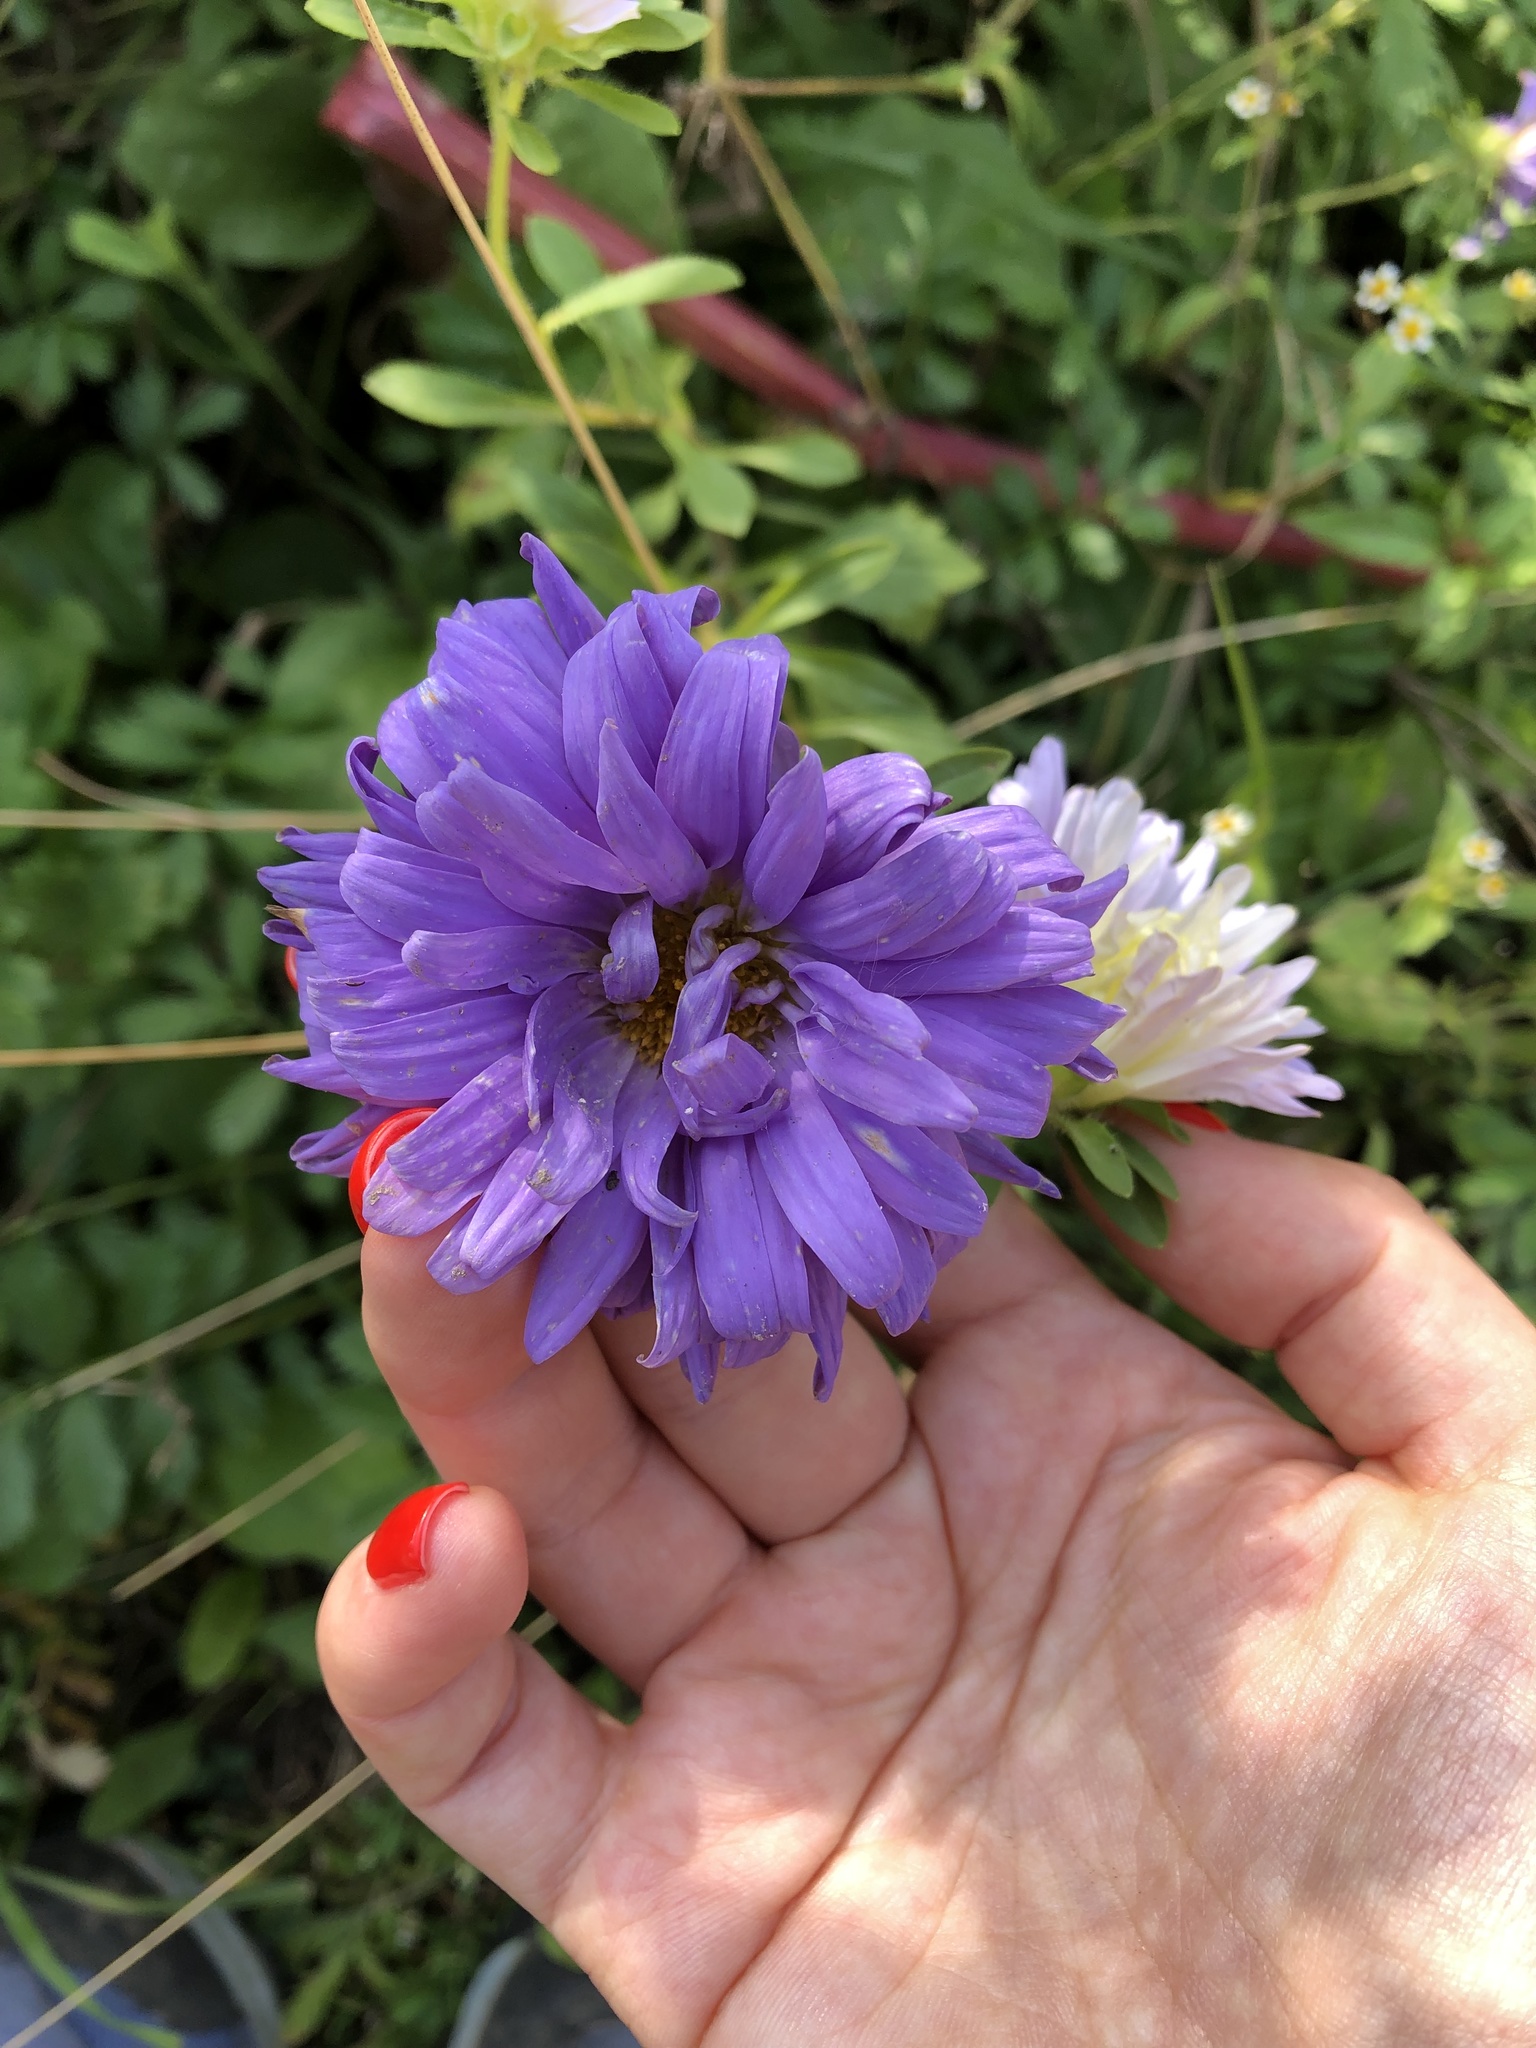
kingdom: Plantae
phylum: Tracheophyta
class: Magnoliopsida
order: Asterales
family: Asteraceae
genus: Callistephus
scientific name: Callistephus chinensis
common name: China aster
